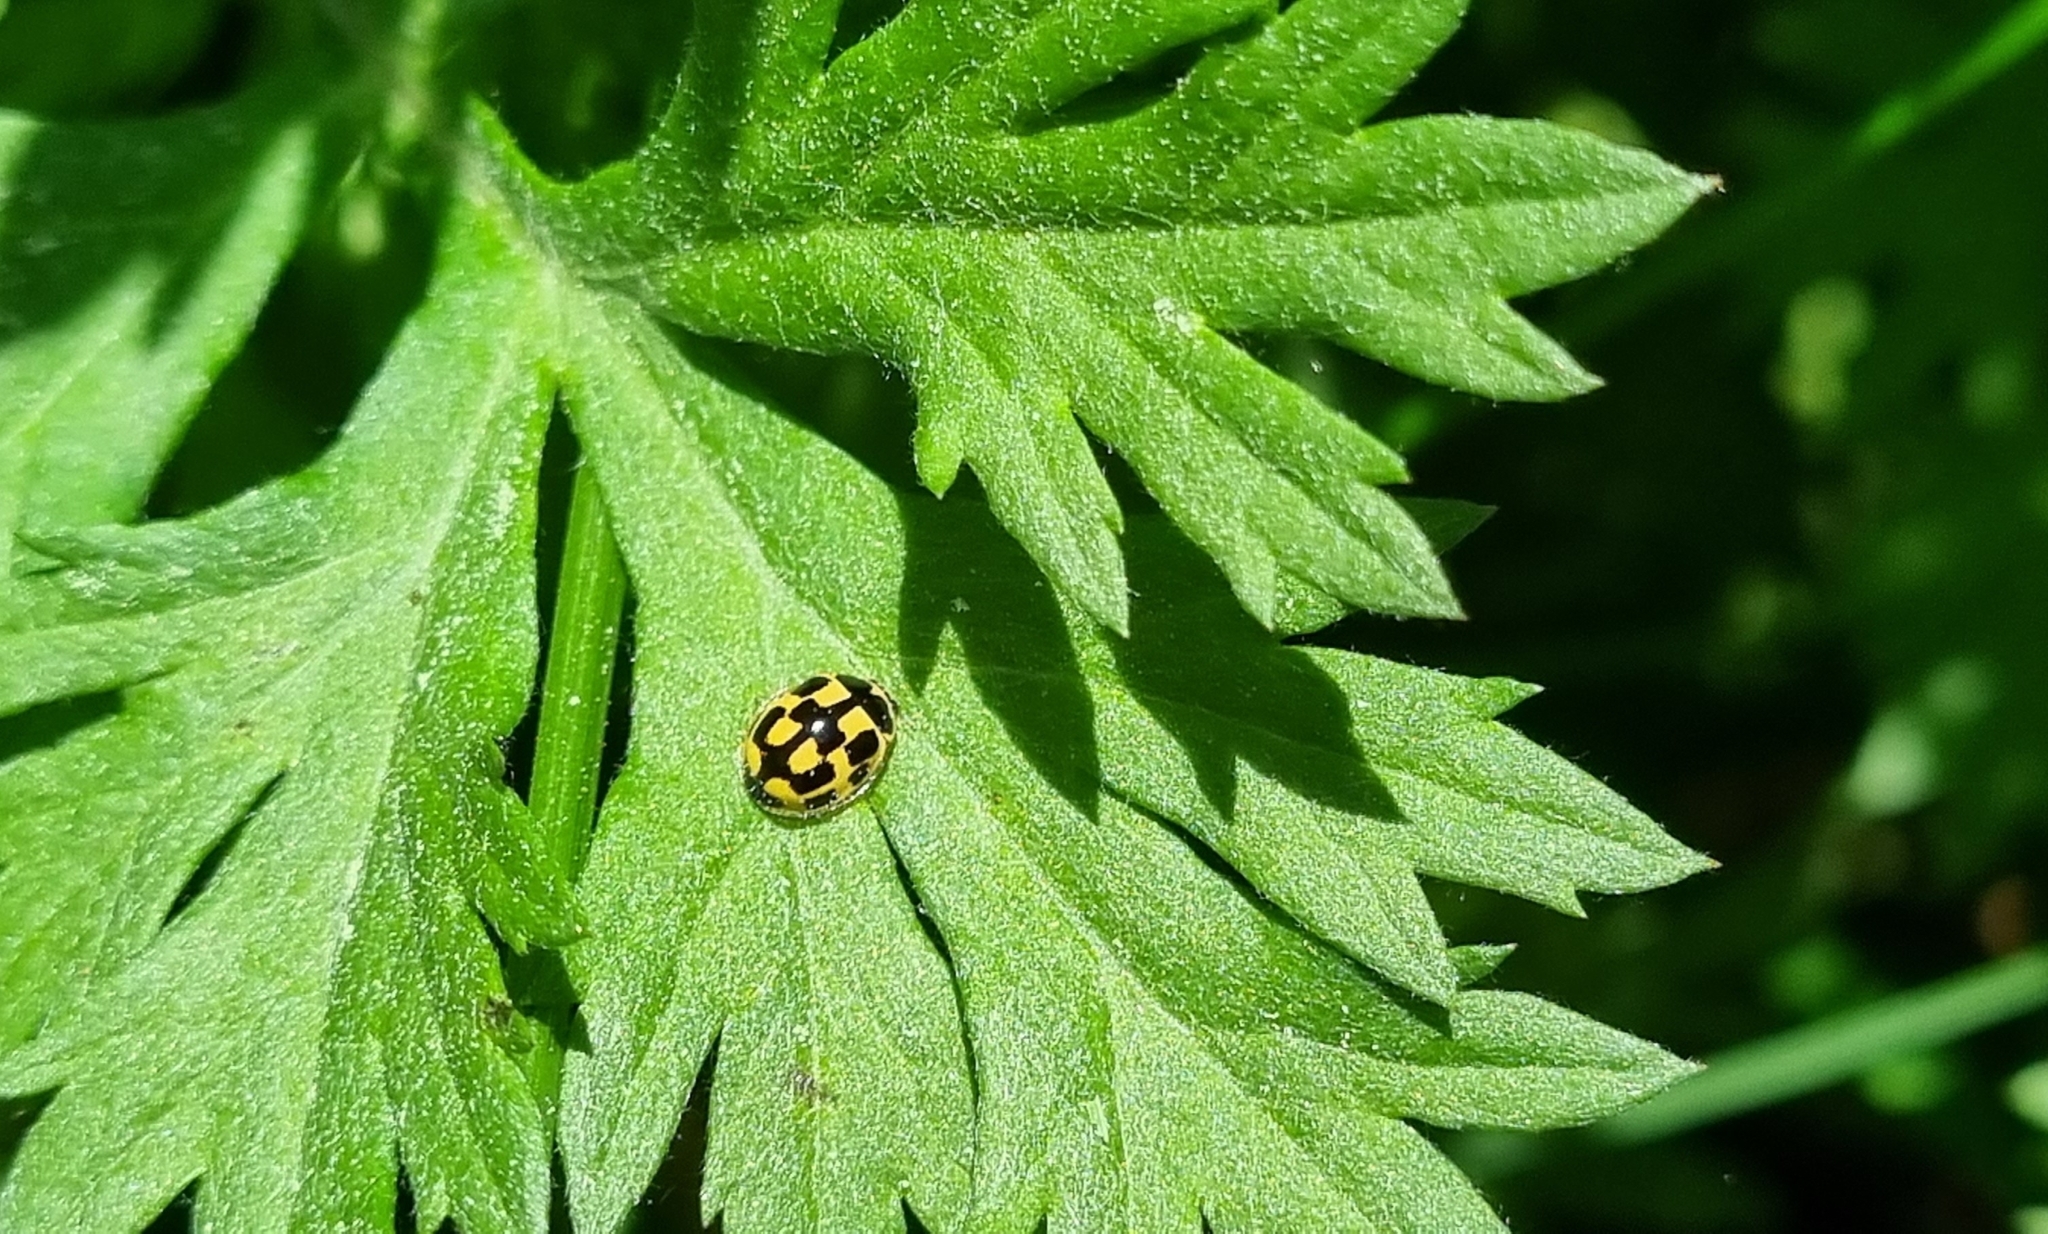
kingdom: Animalia
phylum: Arthropoda
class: Insecta
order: Coleoptera
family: Coccinellidae
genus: Propylaea
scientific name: Propylaea quatuordecimpunctata
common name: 14-spotted ladybird beetle
